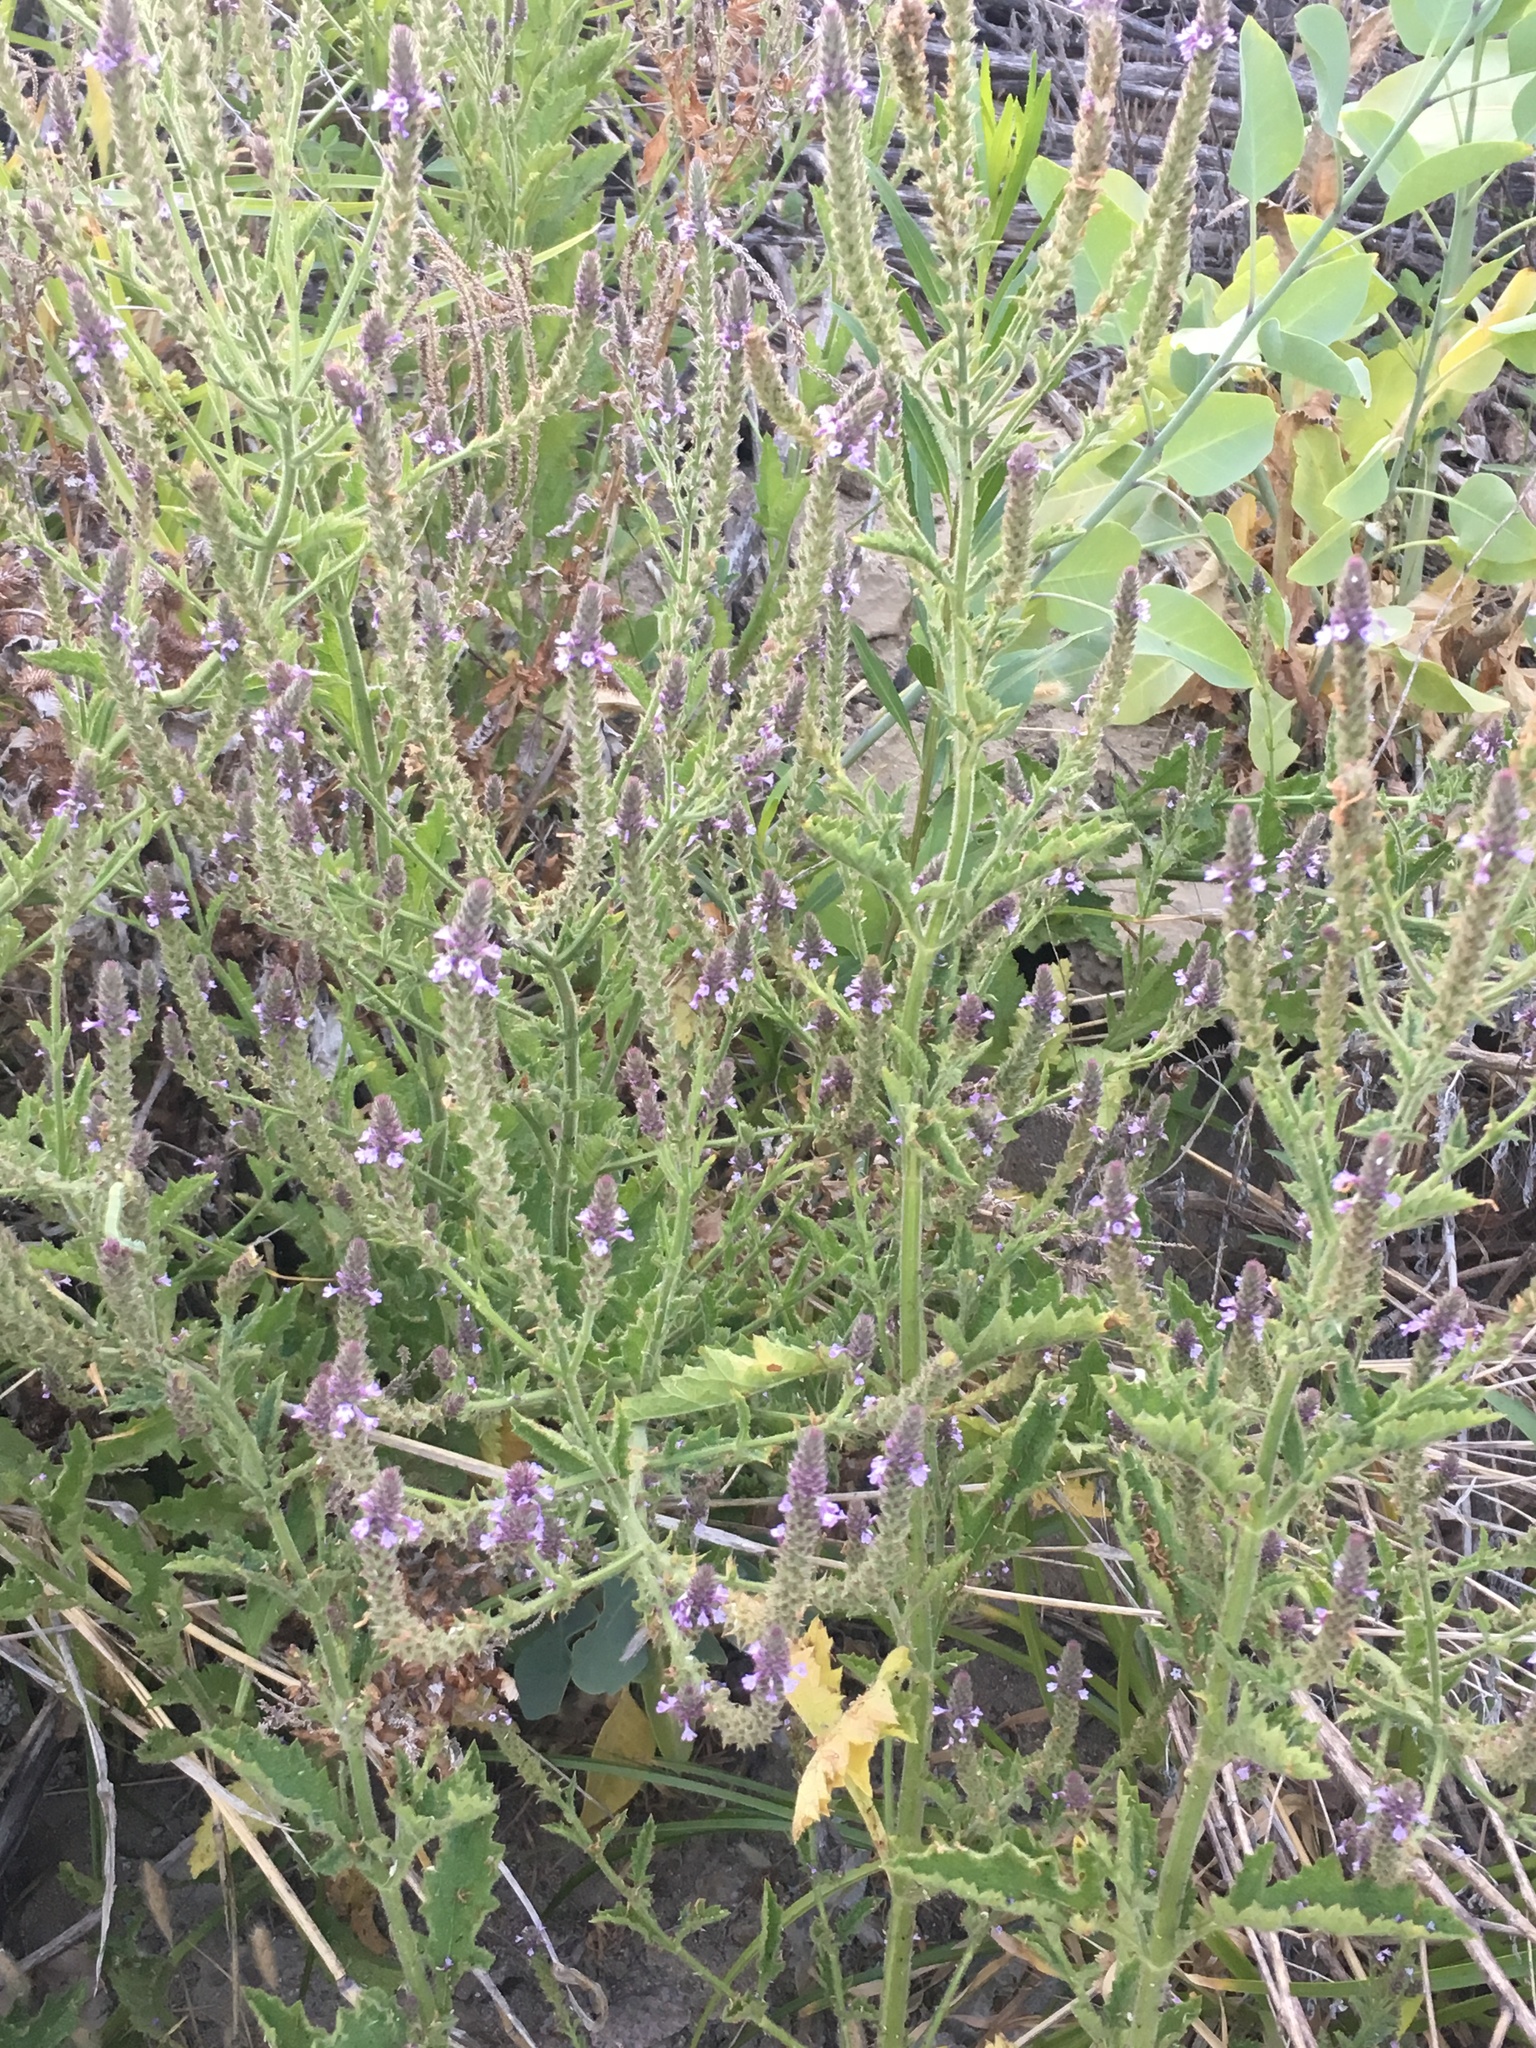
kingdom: Plantae
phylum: Tracheophyta
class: Magnoliopsida
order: Lamiales
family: Verbenaceae
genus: Verbena
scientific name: Verbena lasiostachys
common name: Vervain
